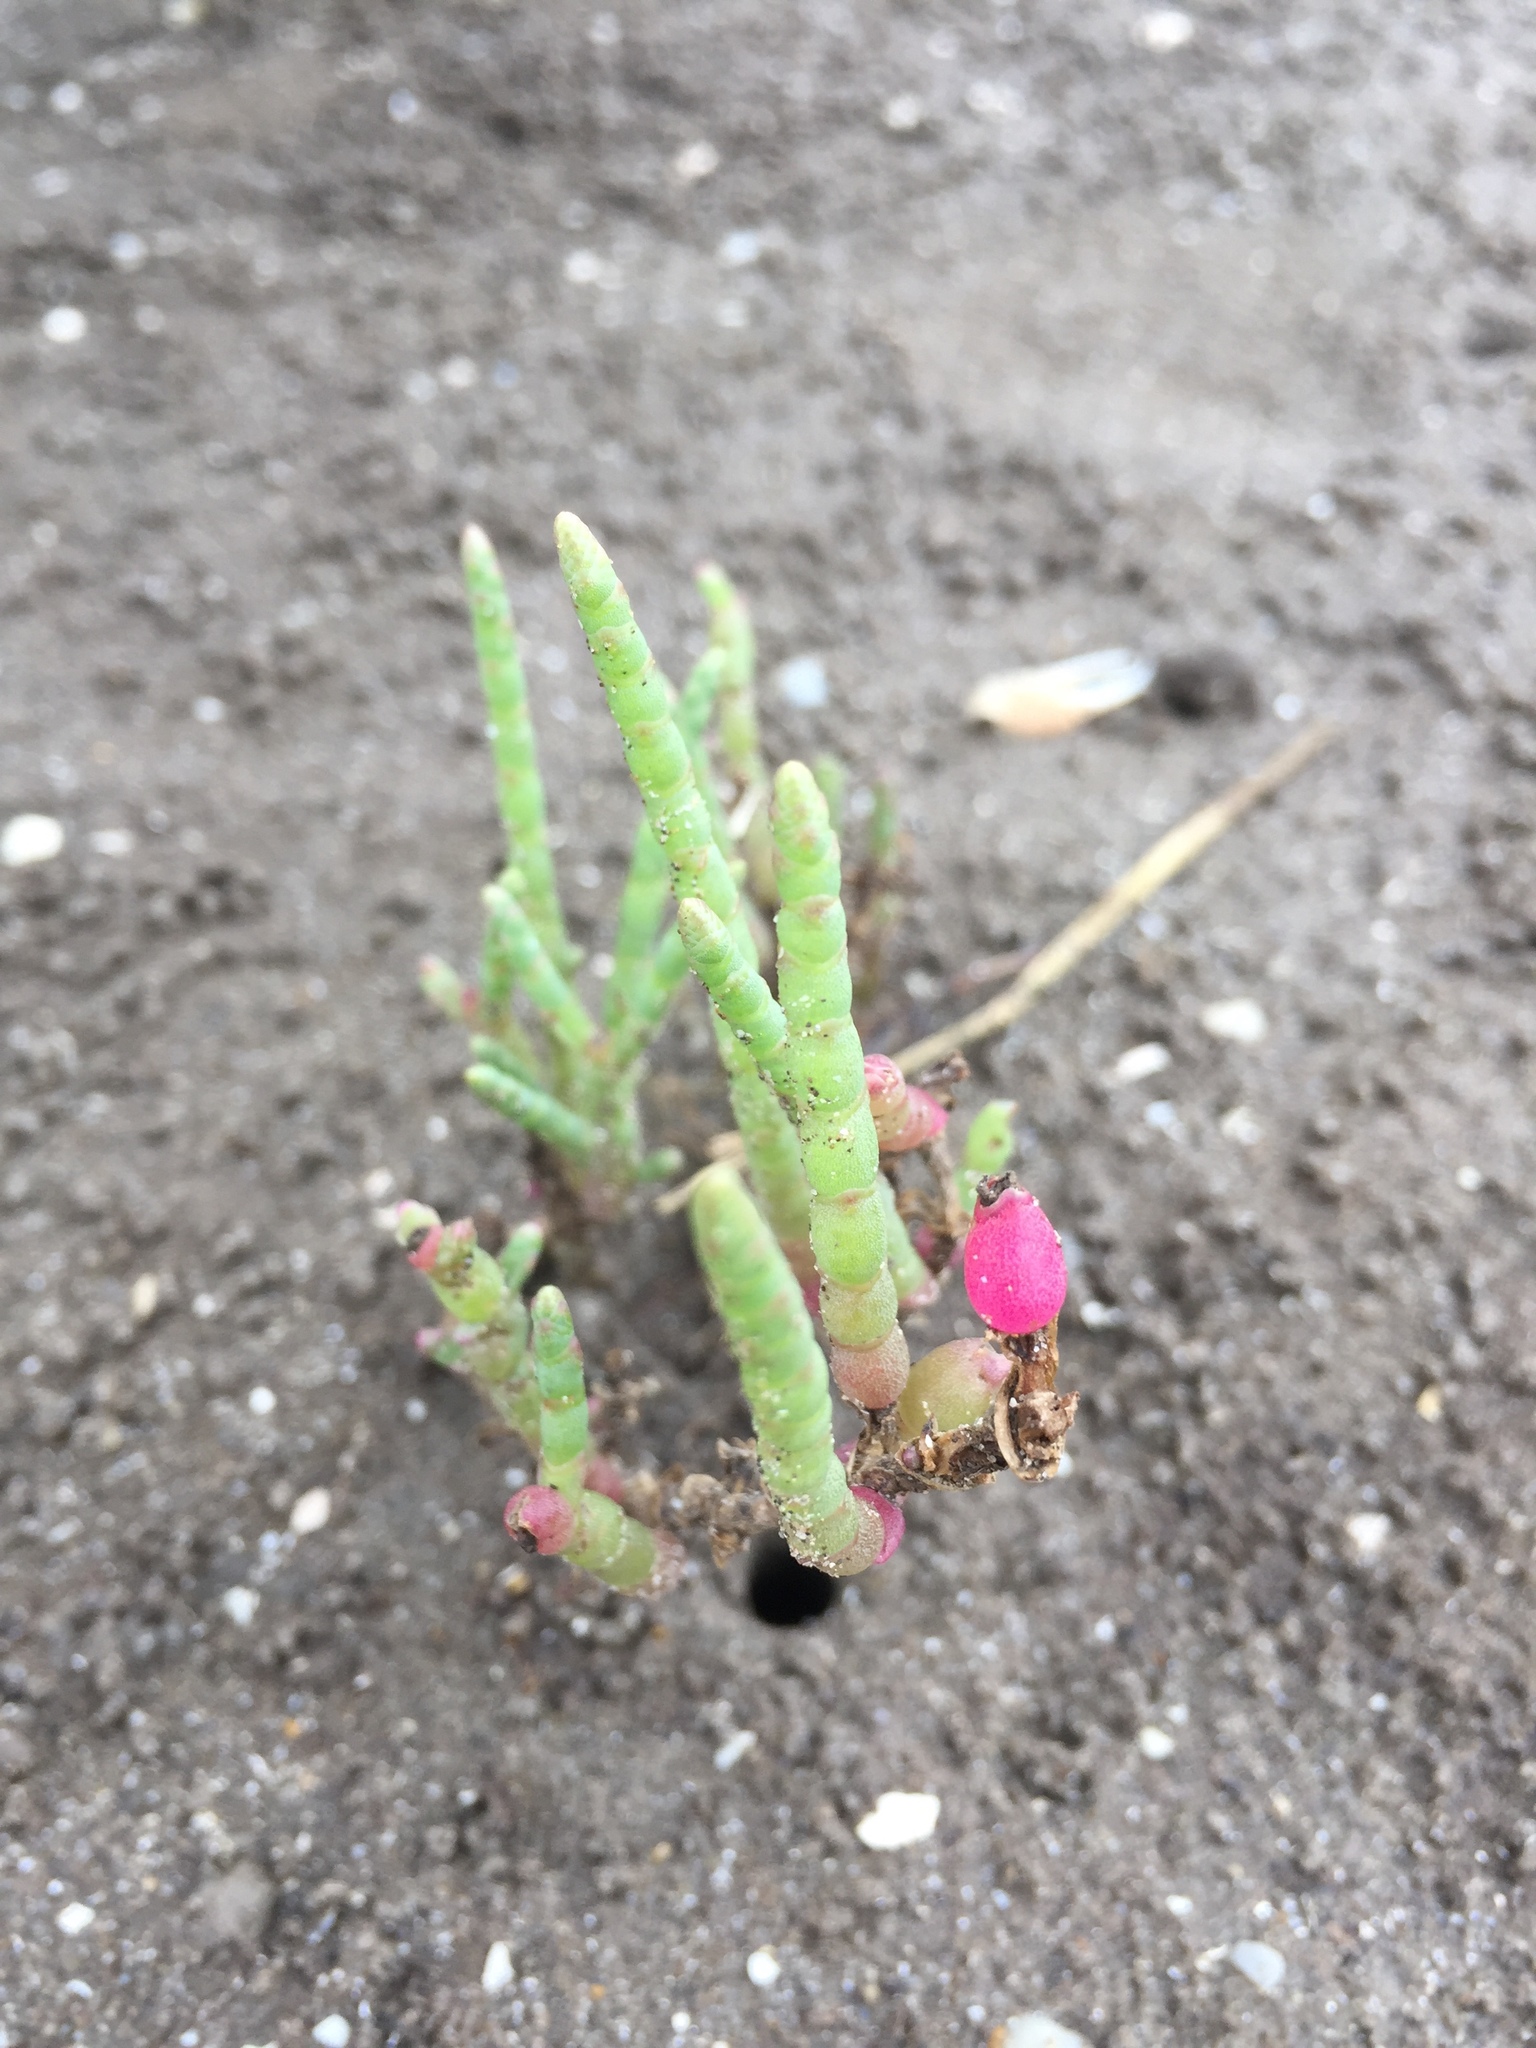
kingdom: Plantae
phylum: Tracheophyta
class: Magnoliopsida
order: Caryophyllales
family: Amaranthaceae
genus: Salicornia
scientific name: Salicornia ambigua
